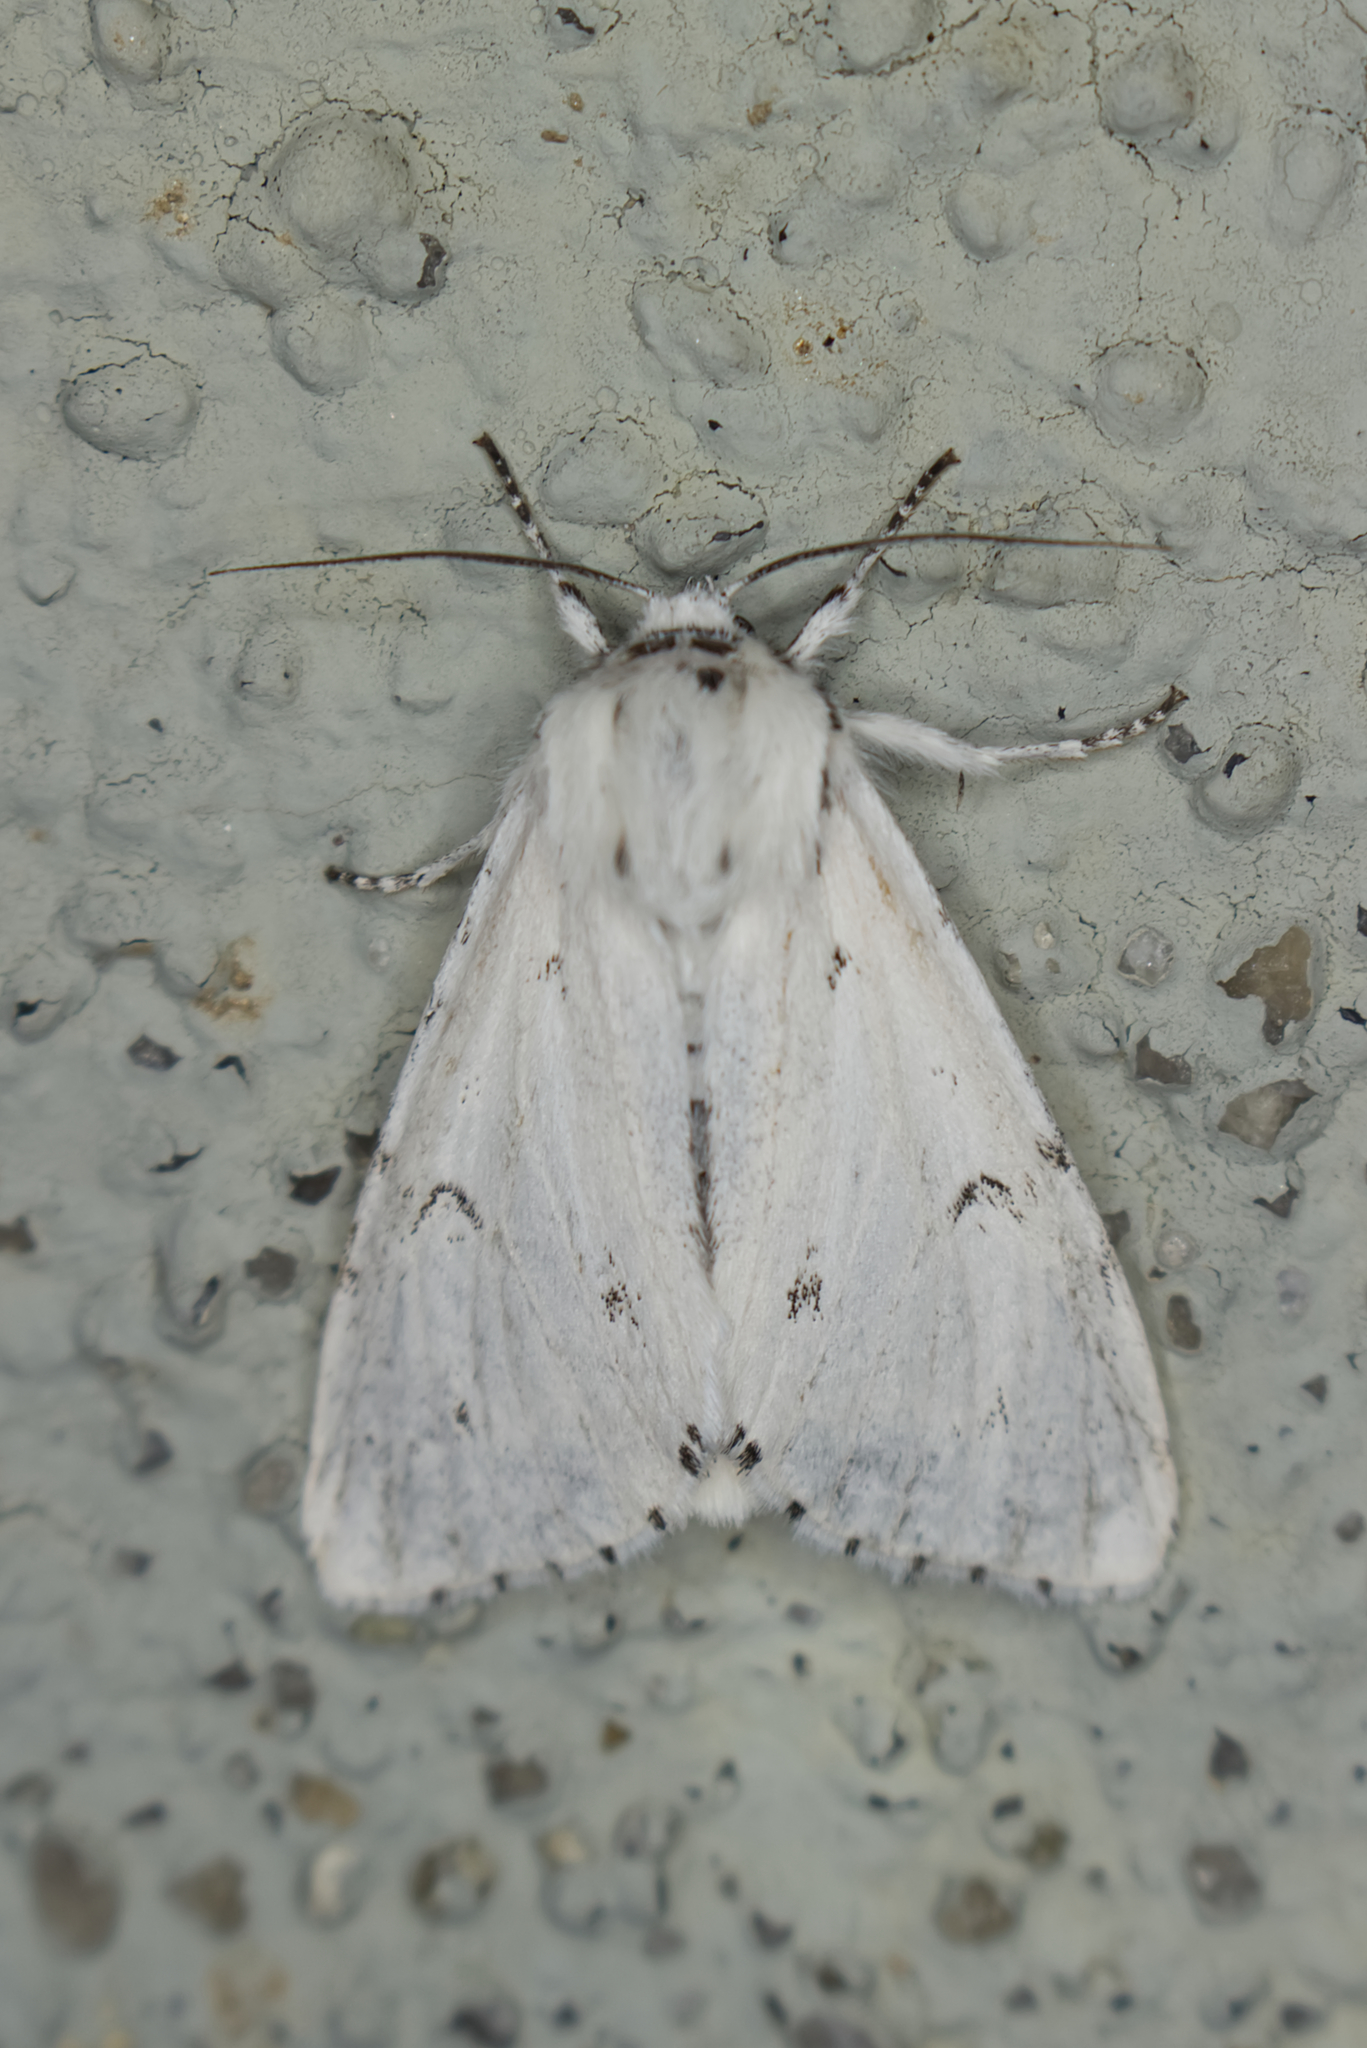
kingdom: Animalia
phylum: Arthropoda
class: Insecta
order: Lepidoptera
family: Noctuidae
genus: Acronicta
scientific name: Acronicta leporina
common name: Miller
